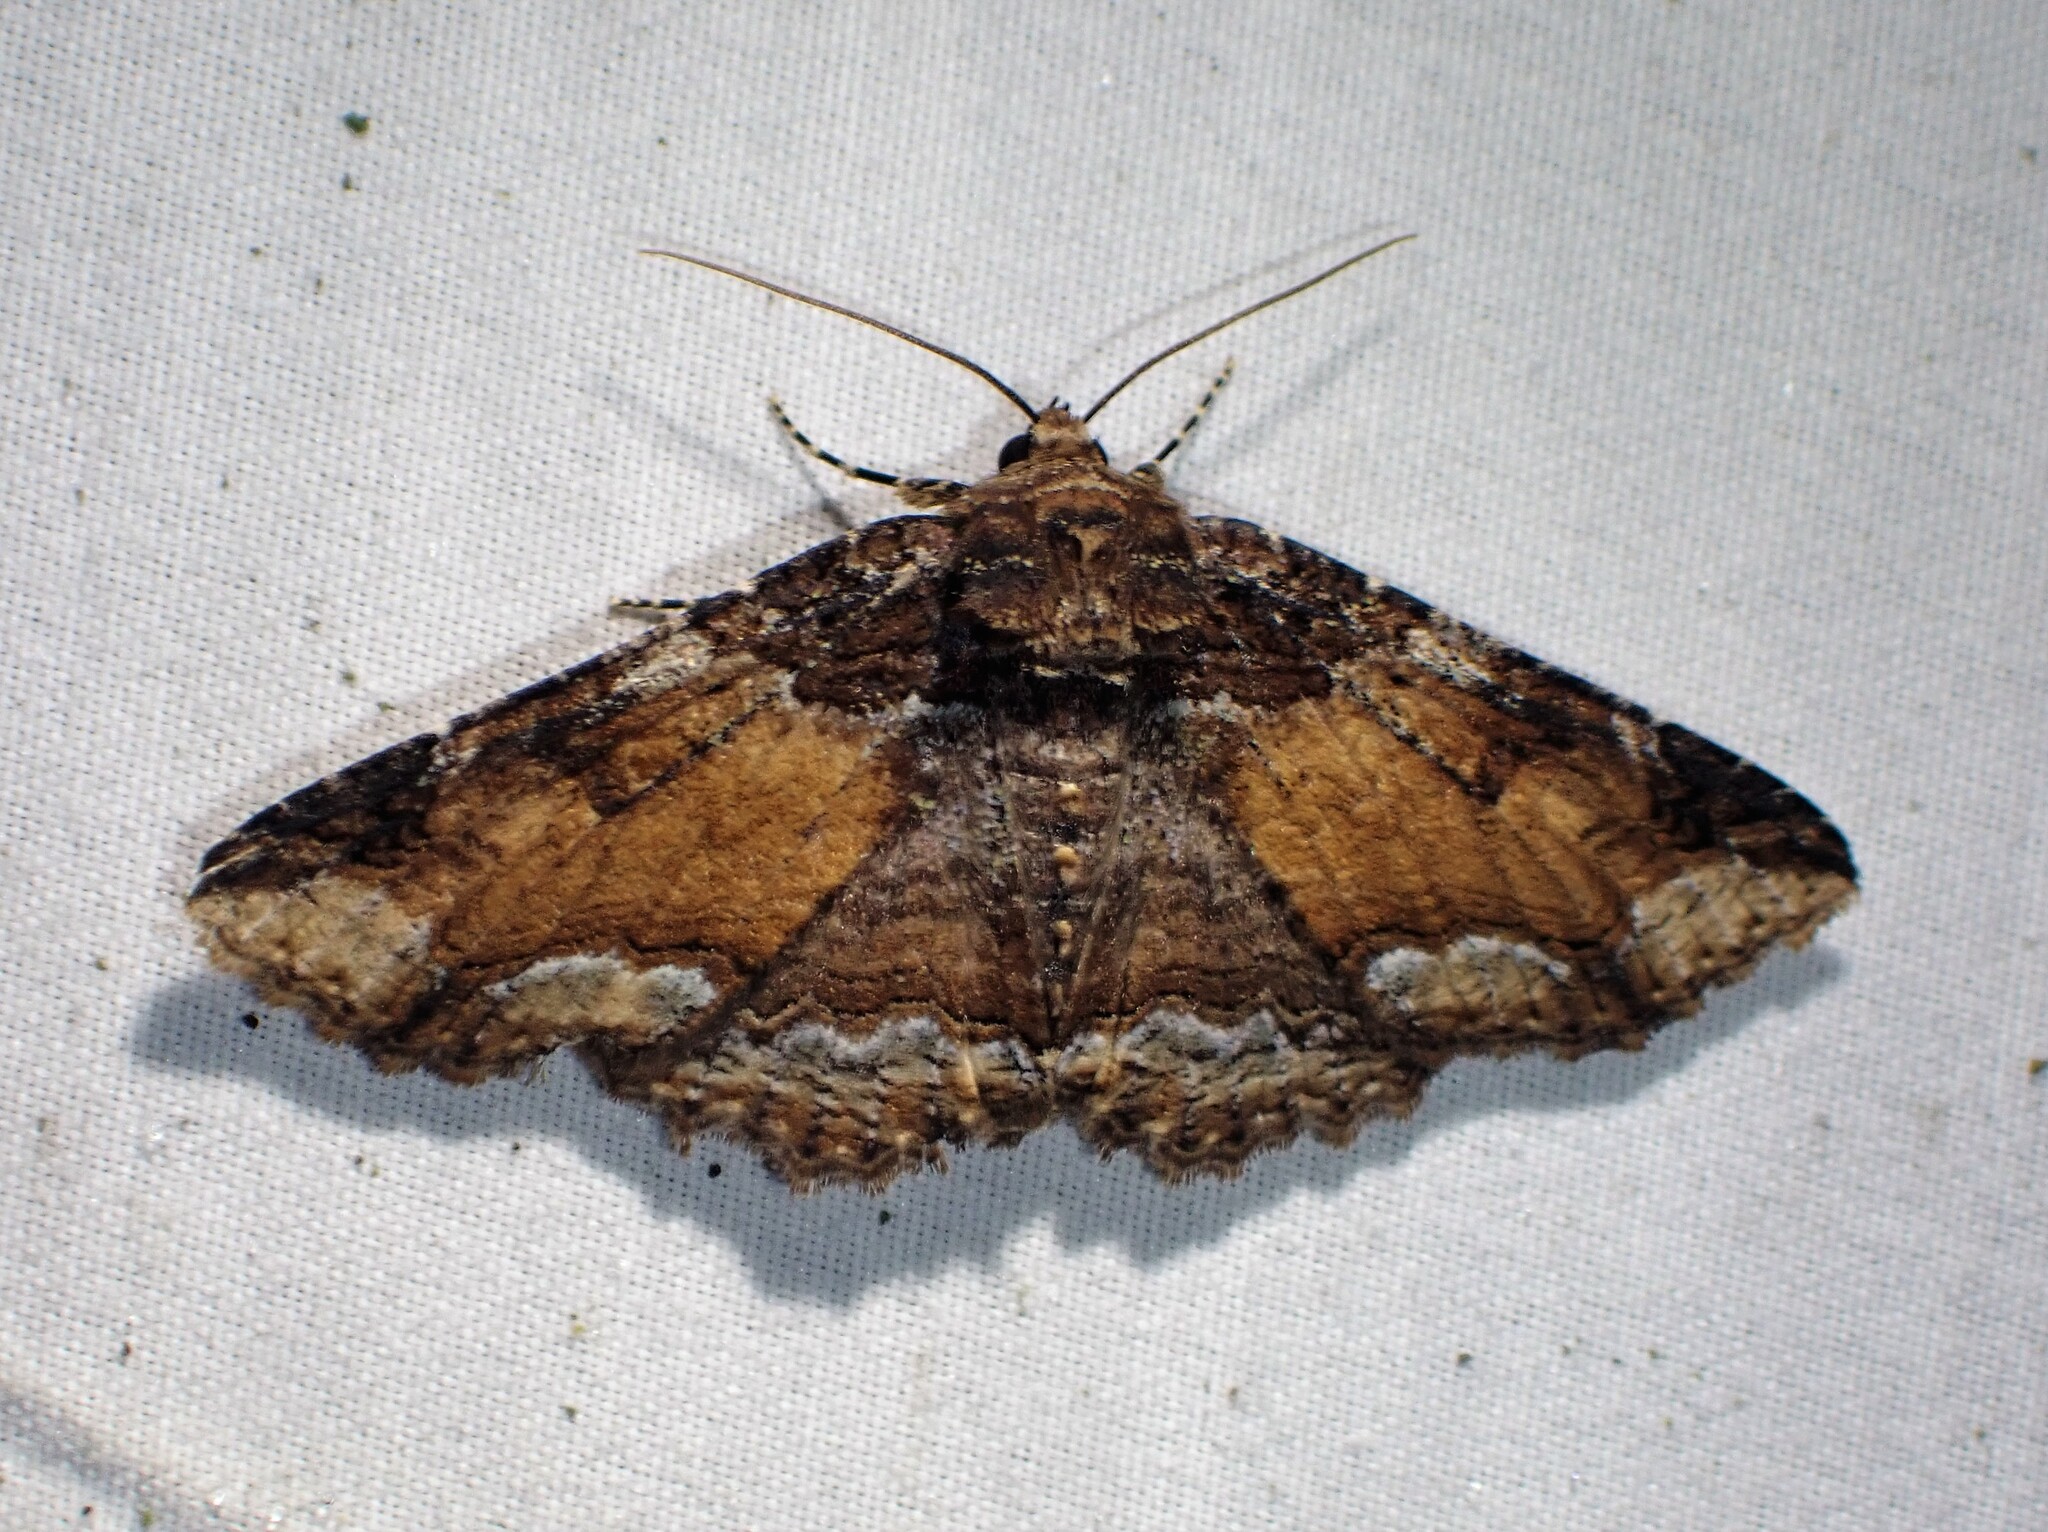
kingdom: Animalia
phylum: Arthropoda
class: Insecta
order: Lepidoptera
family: Erebidae
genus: Zale
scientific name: Zale minerea
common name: Colorful zale moth
